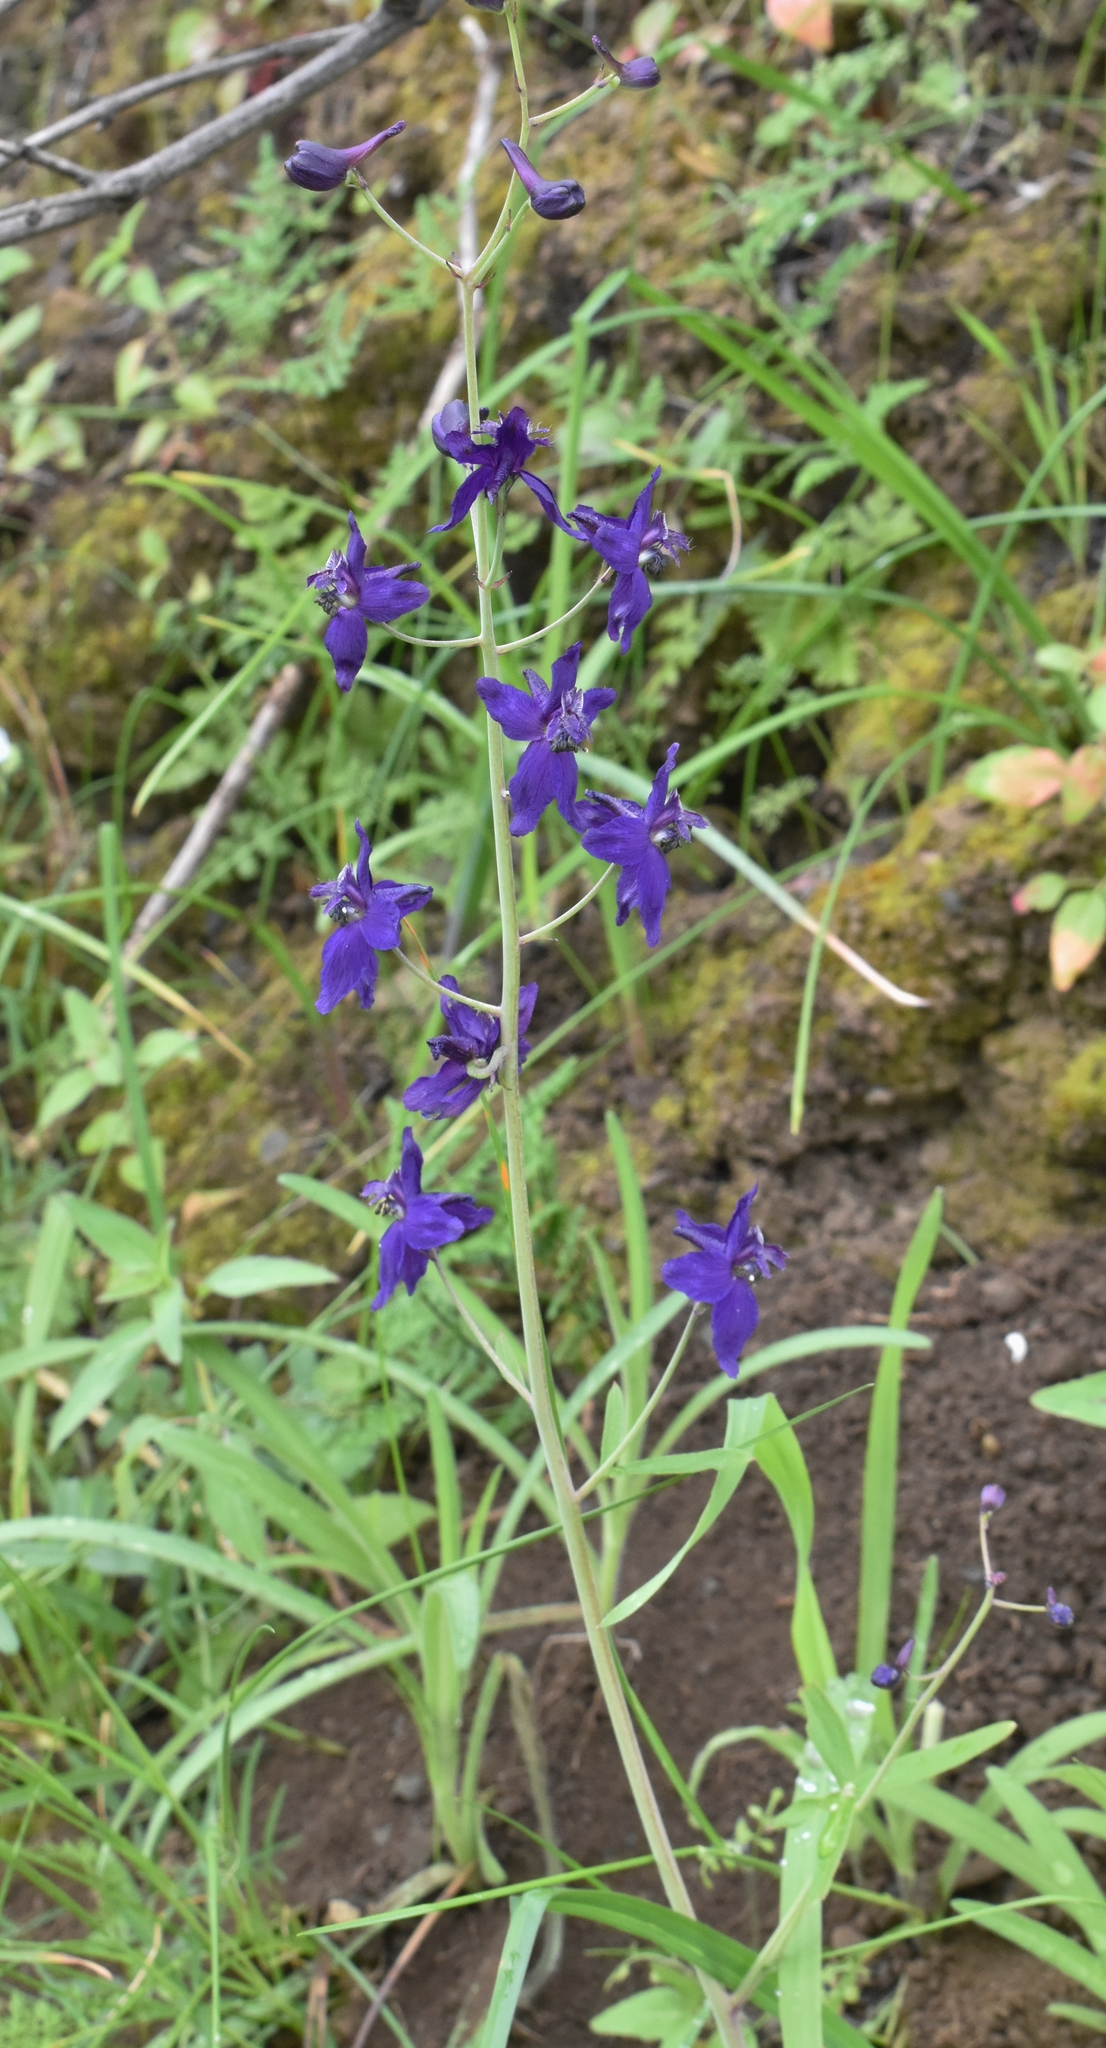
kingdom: Plantae
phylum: Tracheophyta
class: Magnoliopsida
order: Ranunculales
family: Ranunculaceae
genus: Delphinium
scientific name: Delphinium patens
